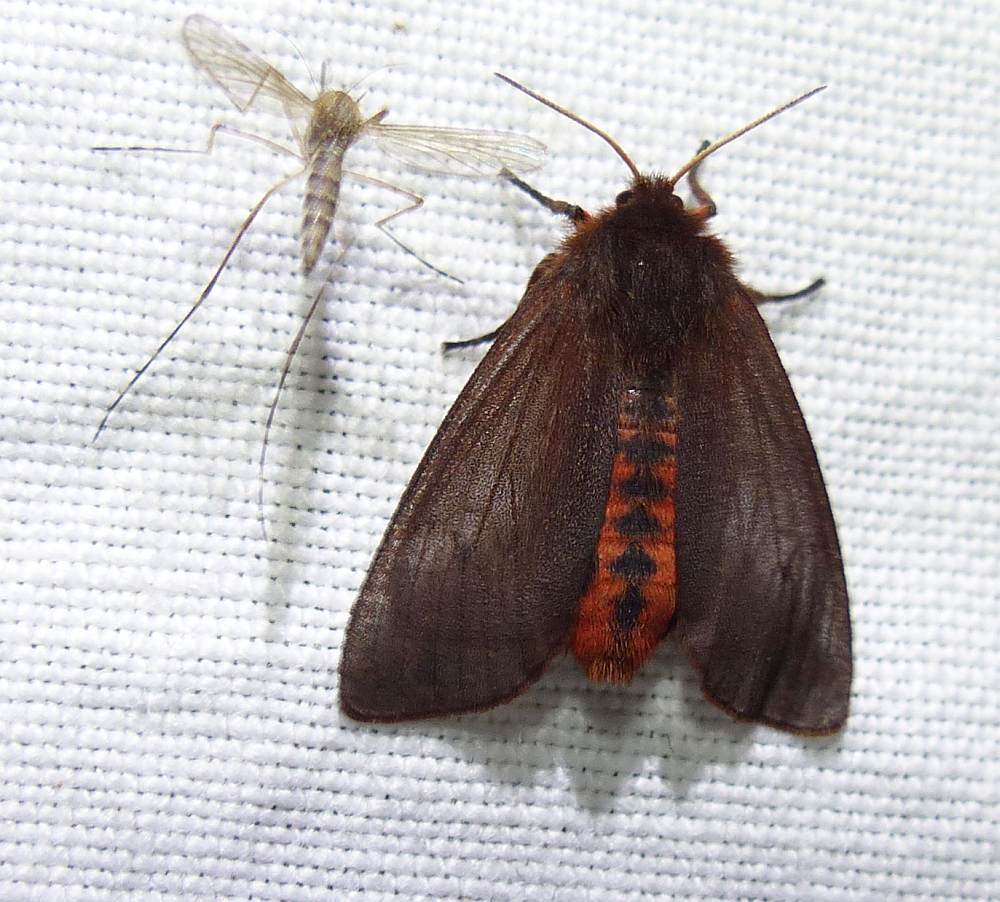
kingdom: Animalia
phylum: Arthropoda
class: Insecta
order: Lepidoptera
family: Erebidae
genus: Phragmatobia
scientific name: Phragmatobia fuliginosa
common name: Ruby tiger
